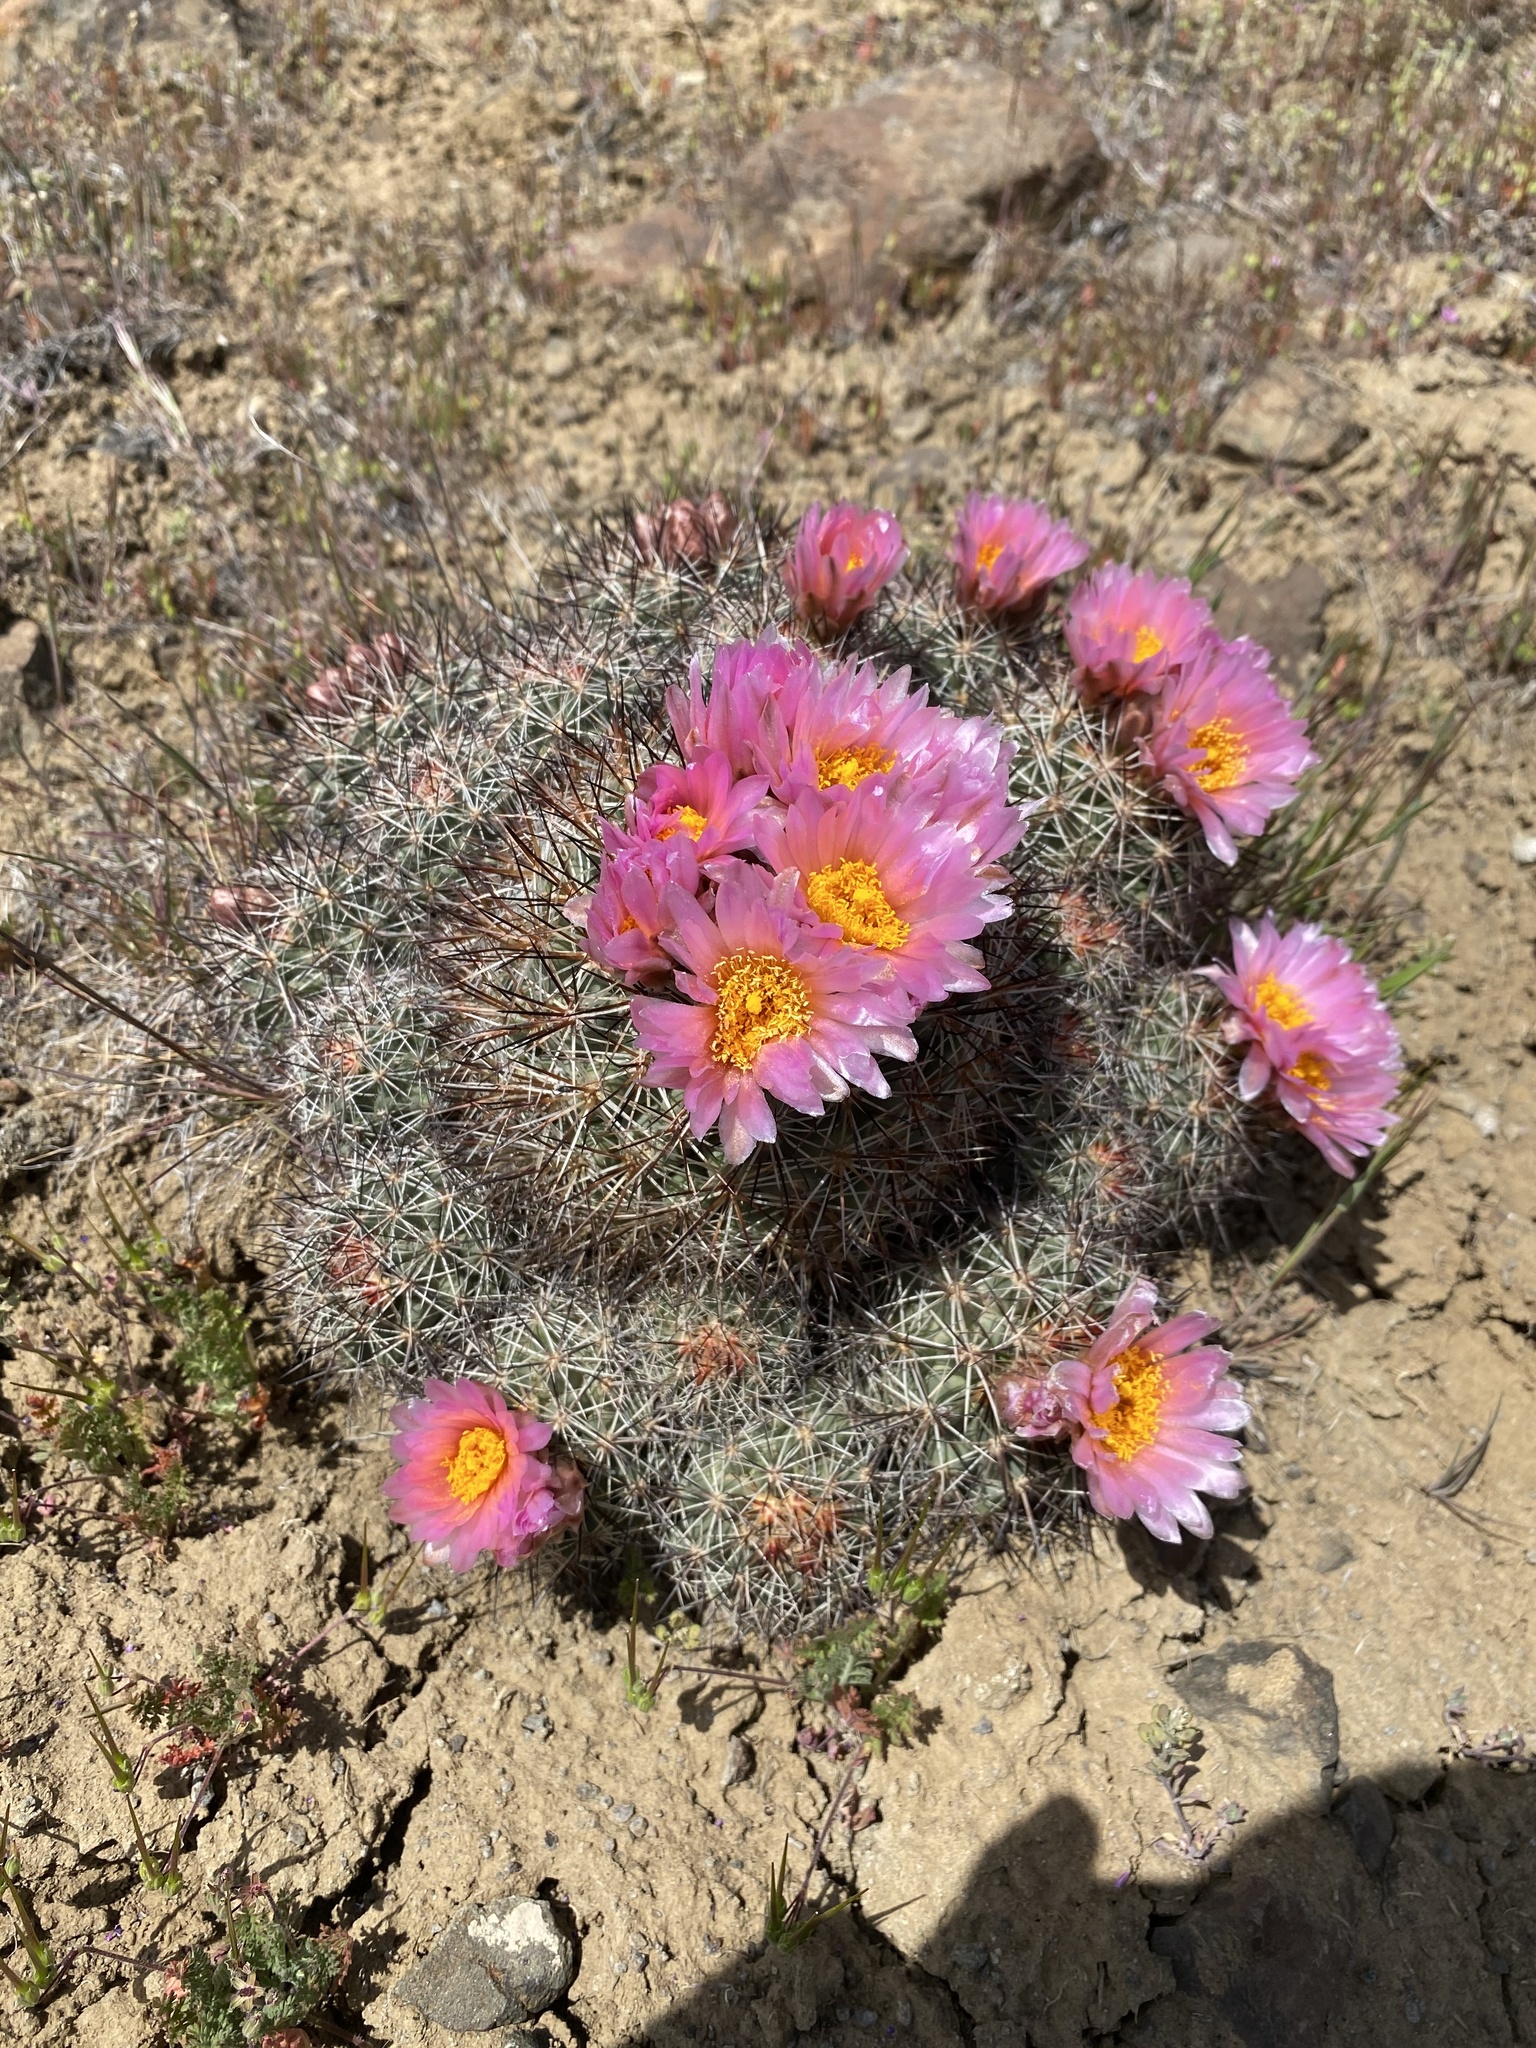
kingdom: Plantae
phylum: Tracheophyta
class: Magnoliopsida
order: Caryophyllales
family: Cactaceae
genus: Pediocactus
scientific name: Pediocactus nigrispinus
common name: Simpson's hedgehog cactus
